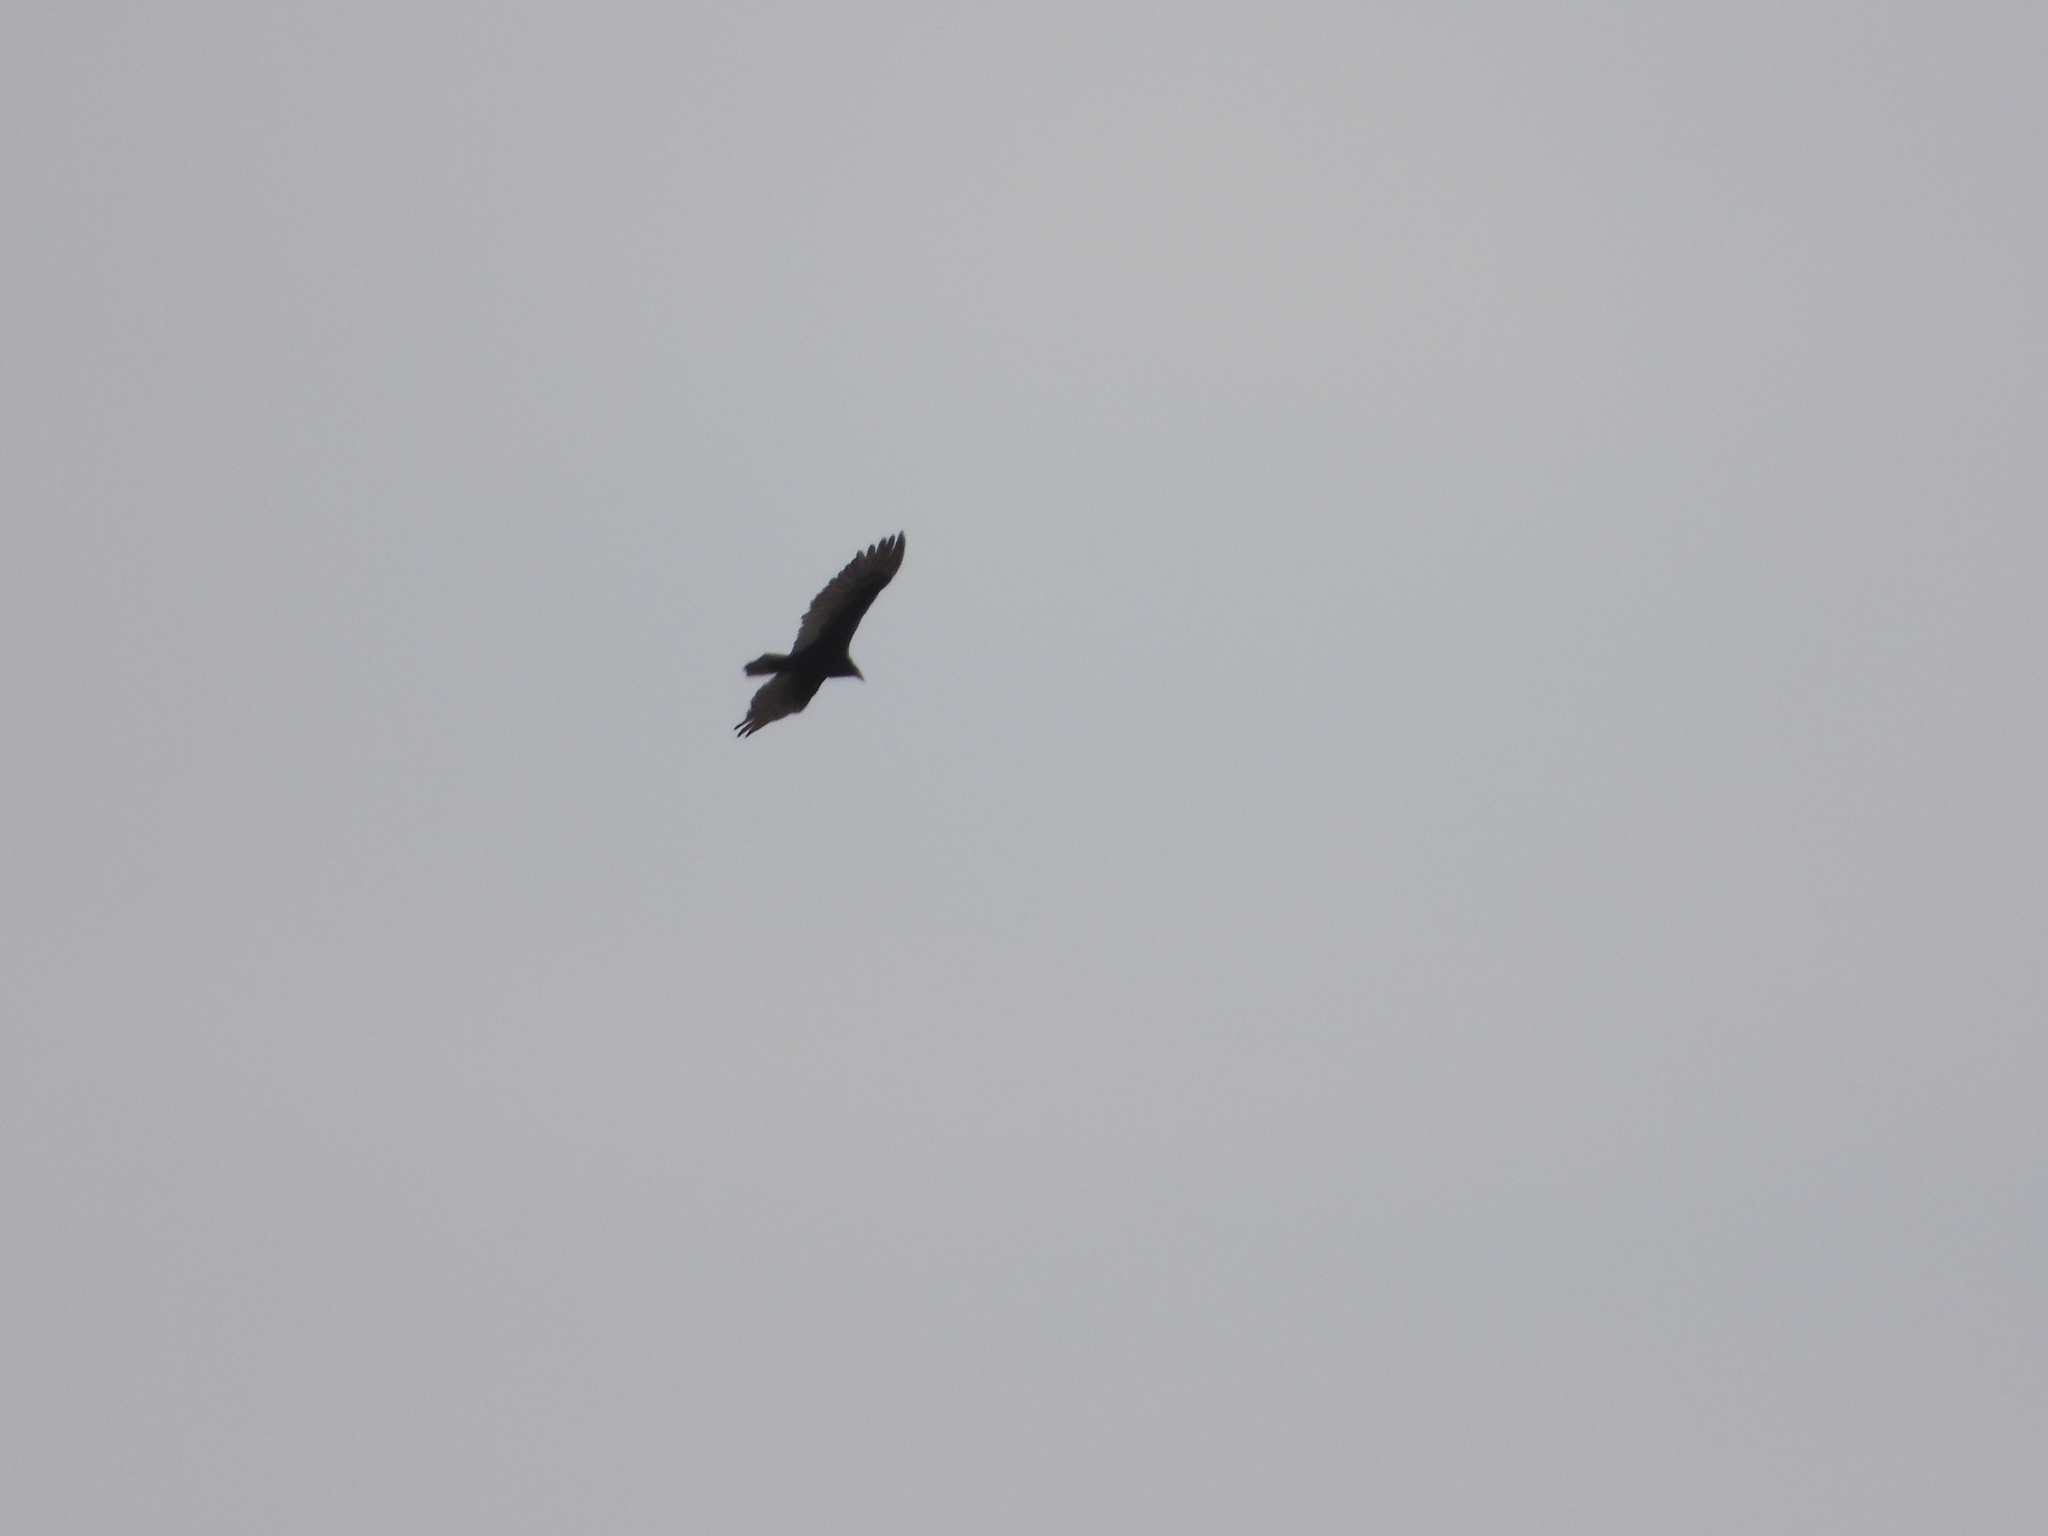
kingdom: Animalia
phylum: Chordata
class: Aves
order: Accipitriformes
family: Cathartidae
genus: Cathartes
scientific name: Cathartes aura
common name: Turkey vulture
